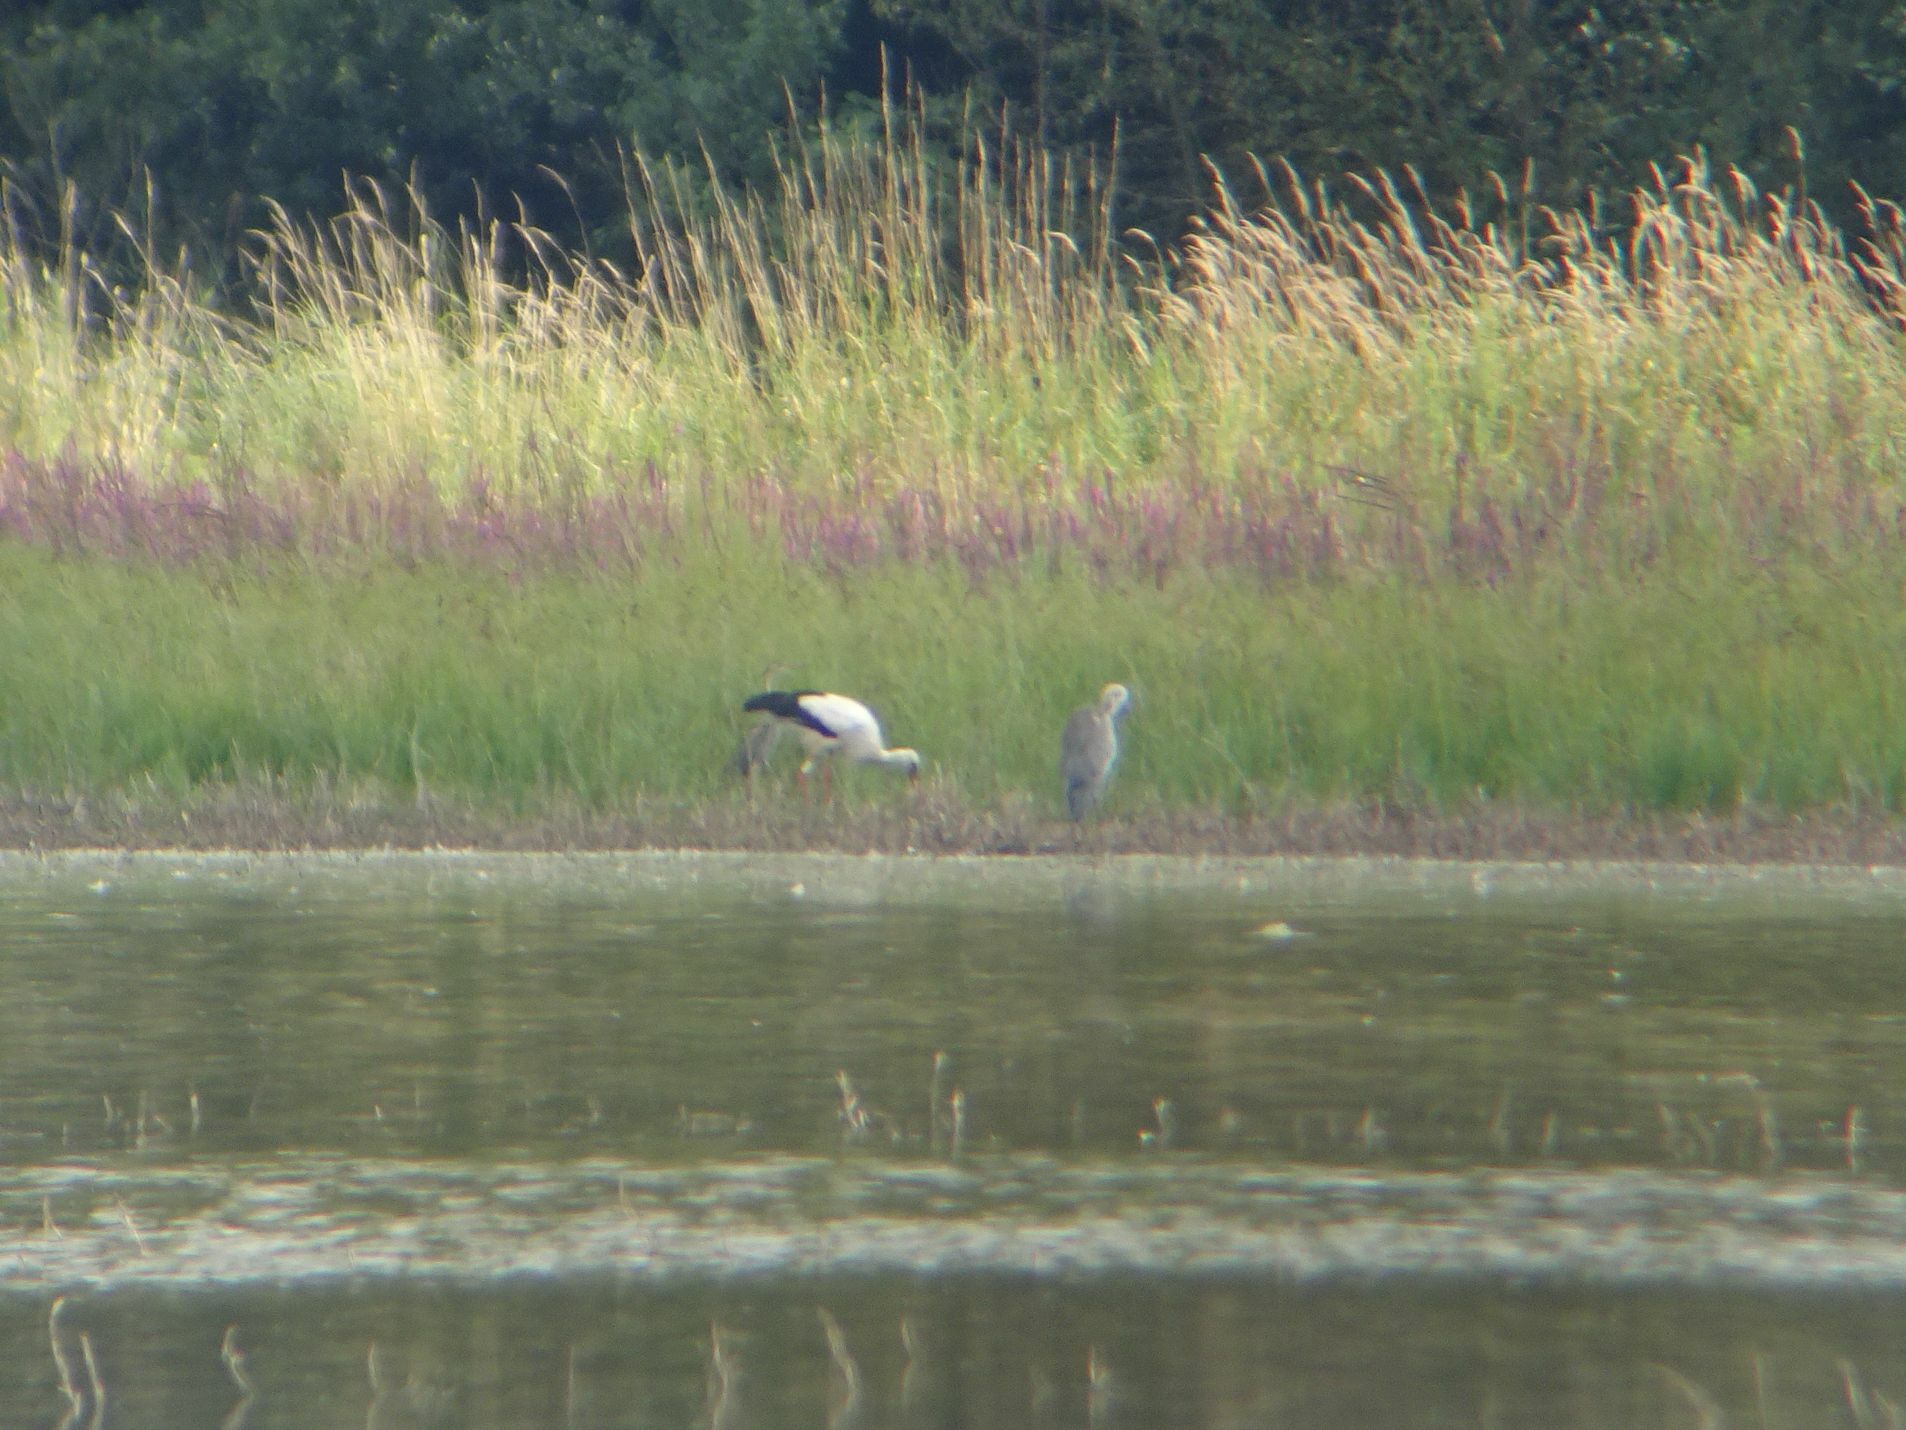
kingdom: Animalia
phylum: Chordata
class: Aves
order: Ciconiiformes
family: Ciconiidae
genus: Ciconia
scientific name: Ciconia ciconia
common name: White stork
